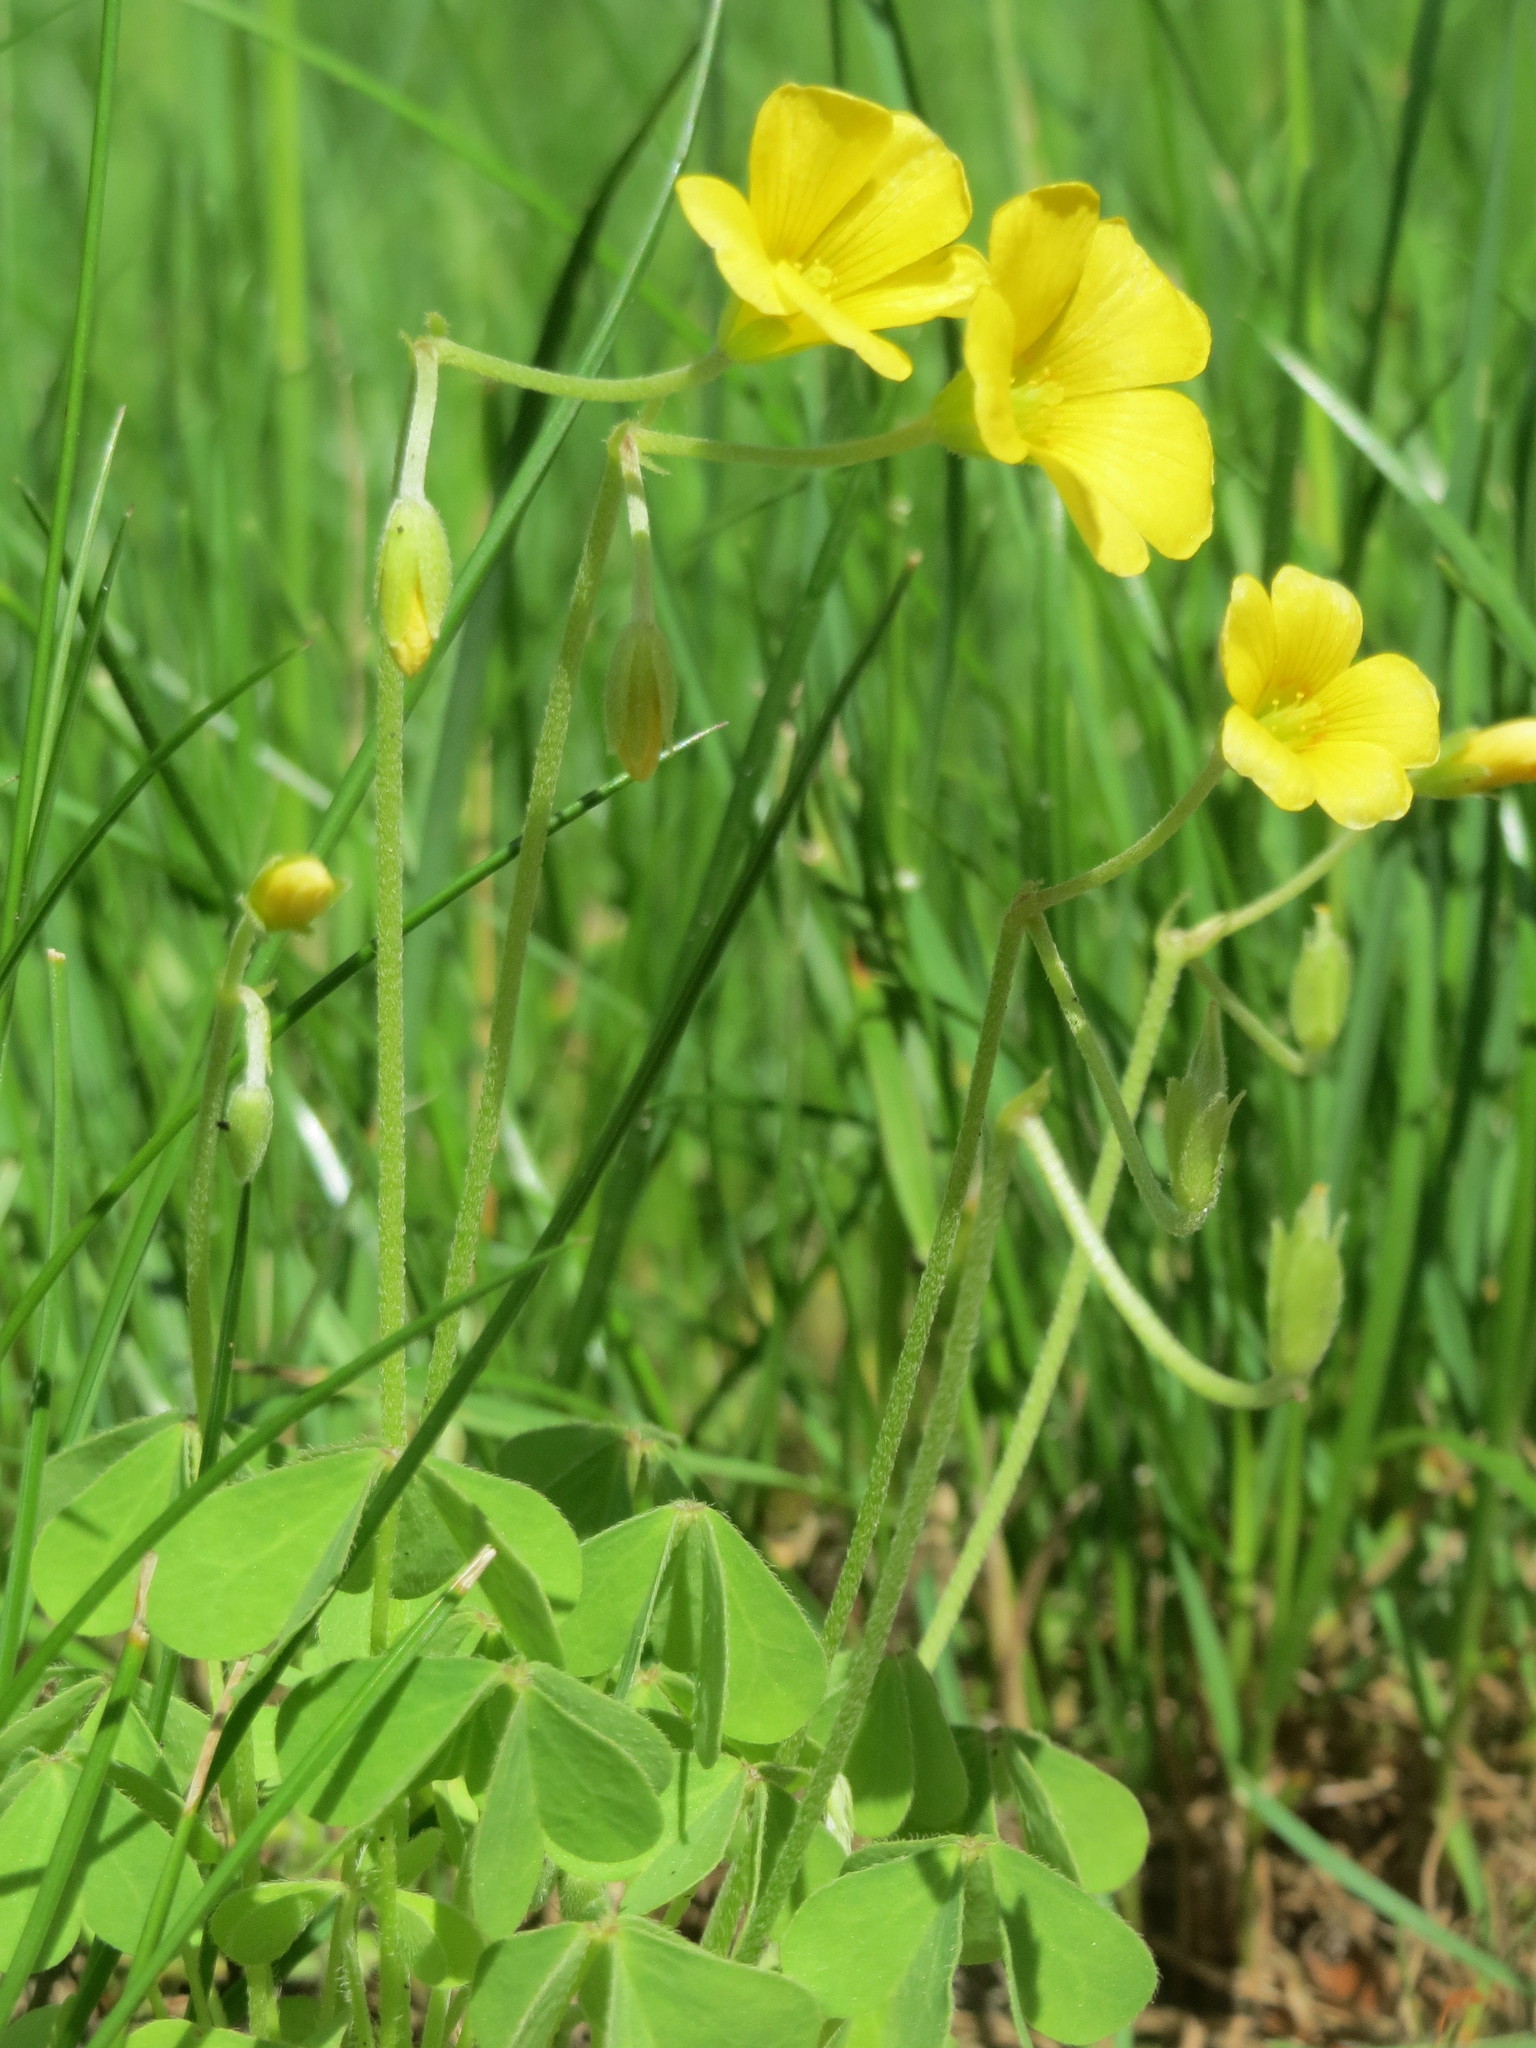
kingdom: Plantae
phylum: Tracheophyta
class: Magnoliopsida
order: Oxalidales
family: Oxalidaceae
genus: Oxalis
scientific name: Oxalis stricta
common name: Upright yellow-sorrel
